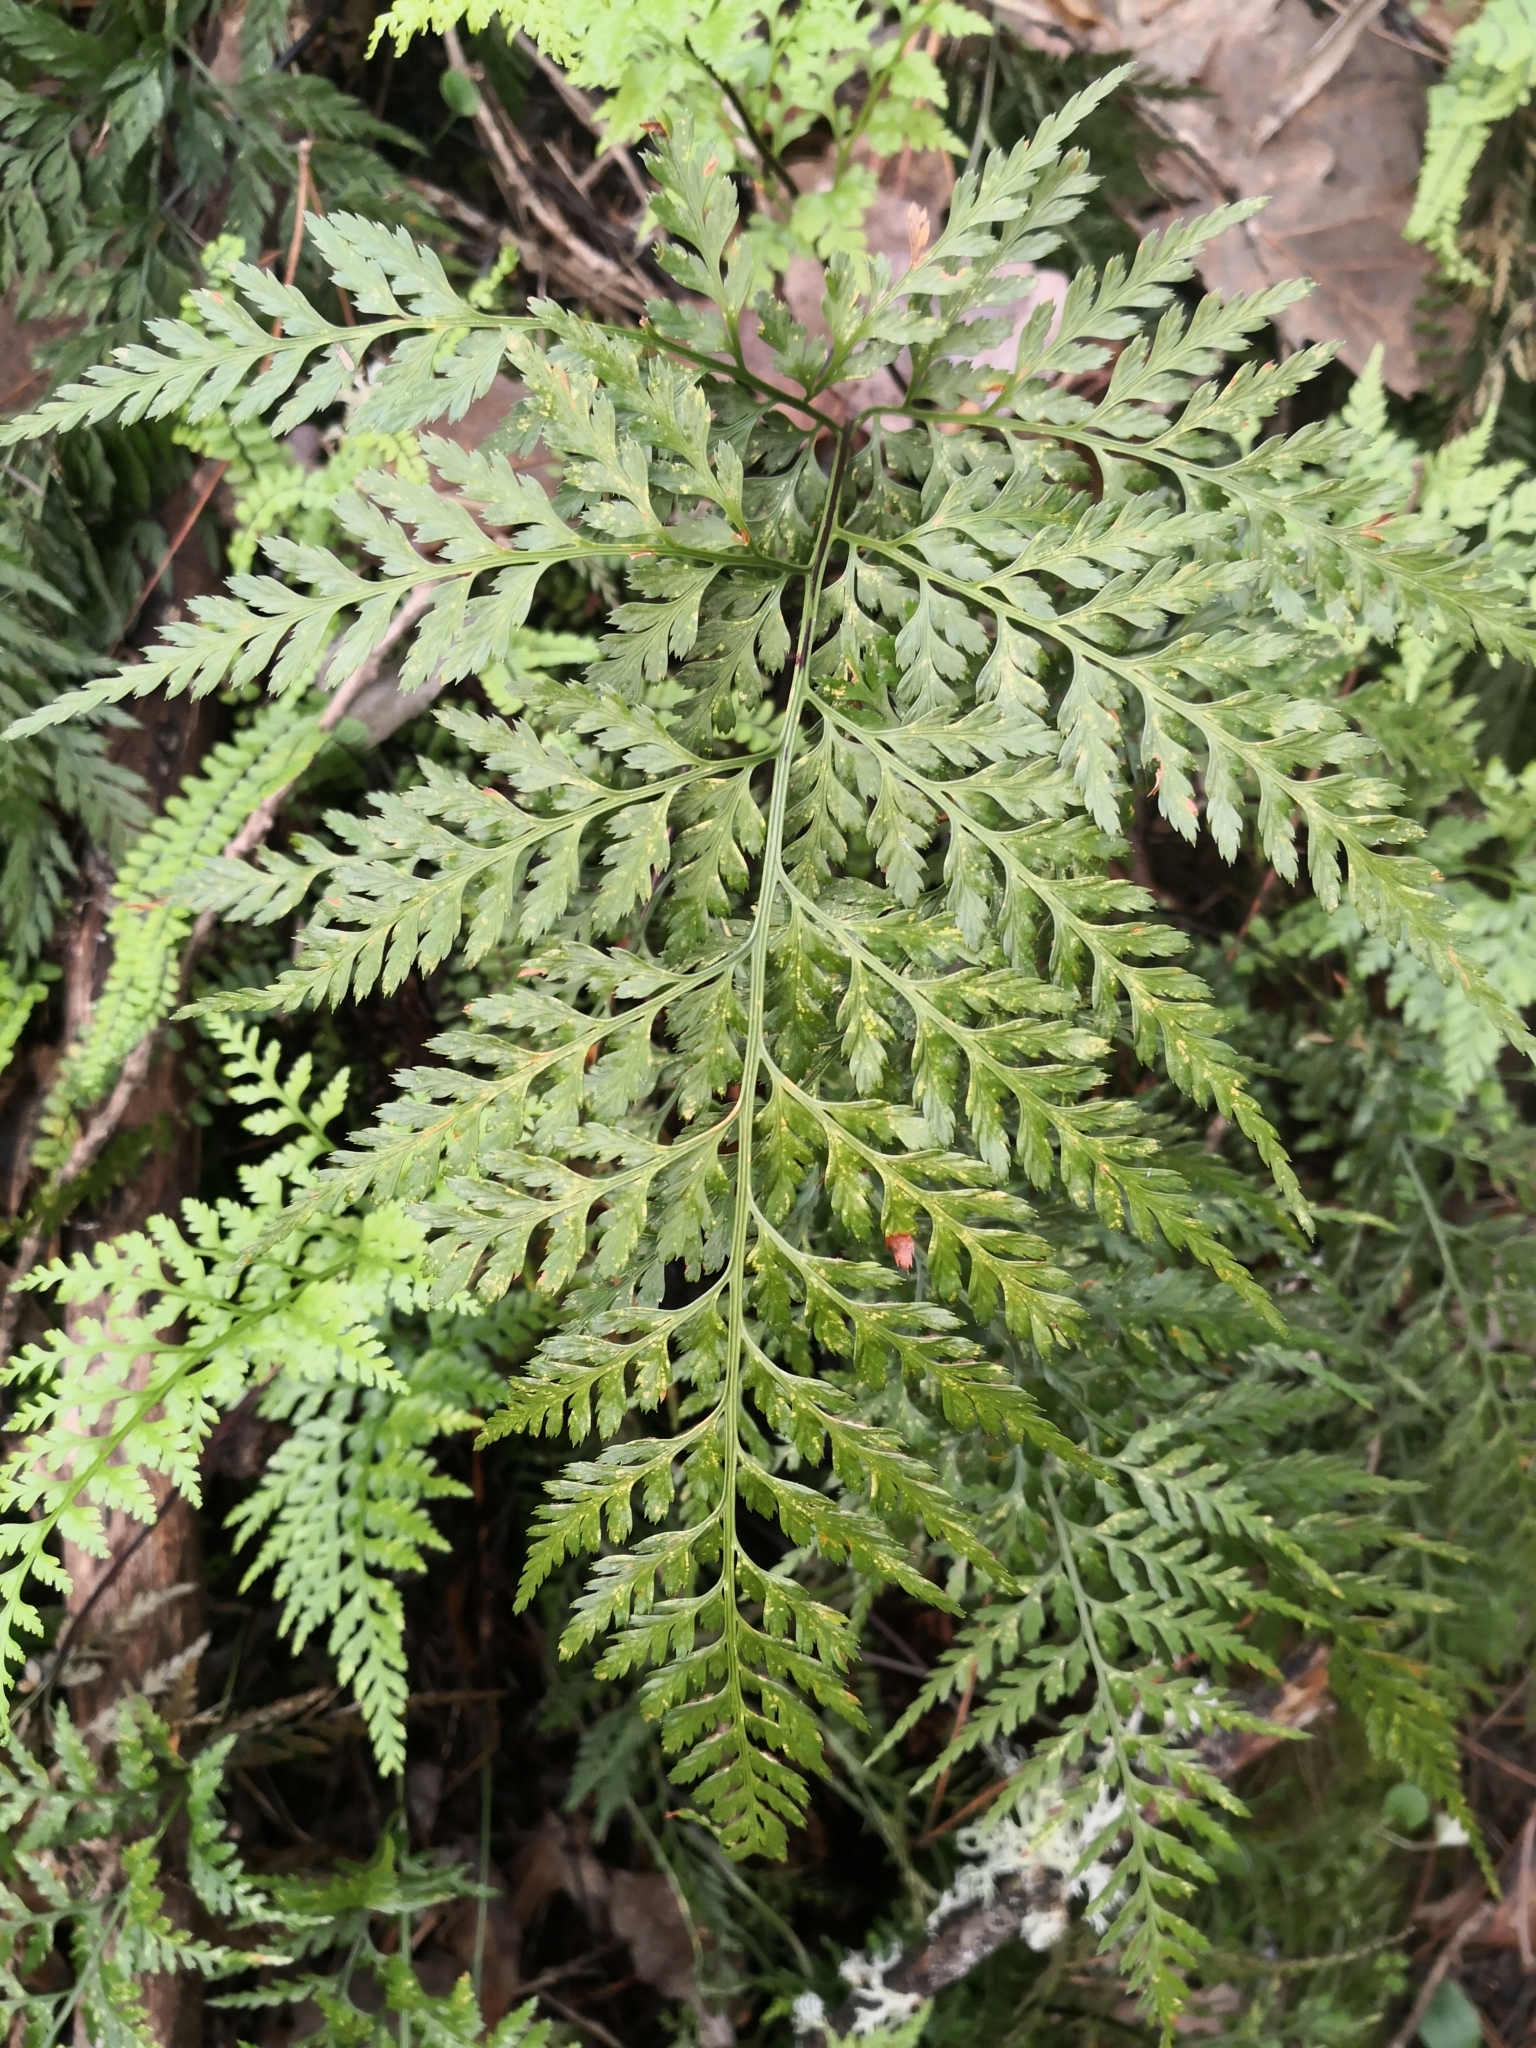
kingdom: Plantae
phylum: Tracheophyta
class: Polypodiopsida
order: Polypodiales
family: Aspleniaceae
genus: Asplenium
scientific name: Asplenium onopteris
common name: Irish spleenwort
